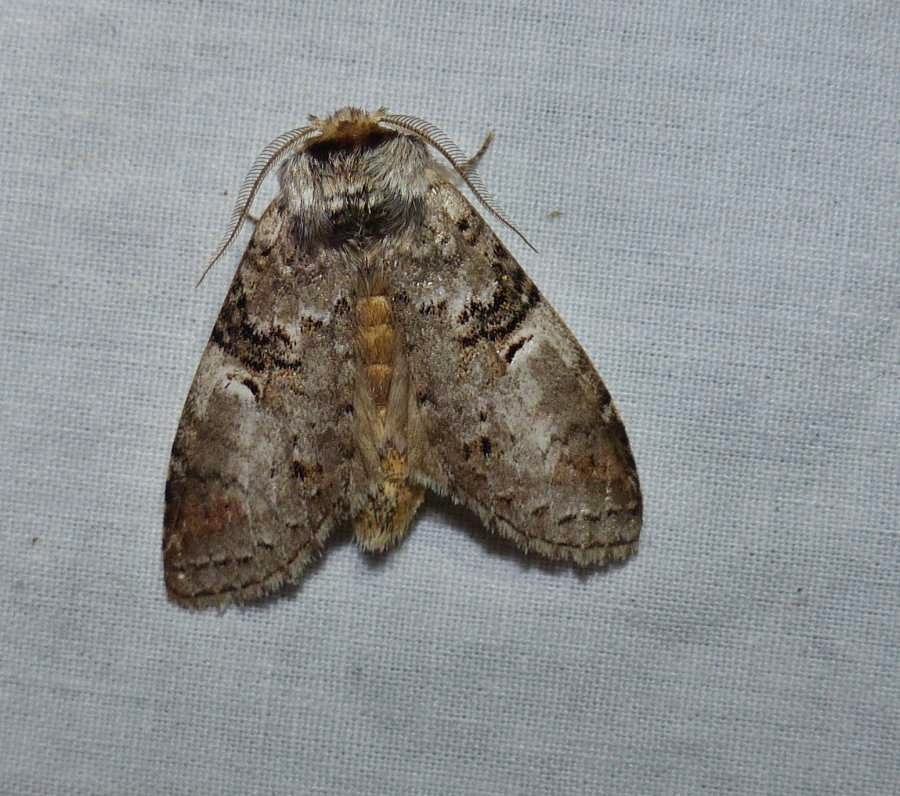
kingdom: Animalia
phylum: Arthropoda
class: Insecta
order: Lepidoptera
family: Notodontidae
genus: Ellida
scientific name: Ellida caniplaga
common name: Linden prominent
